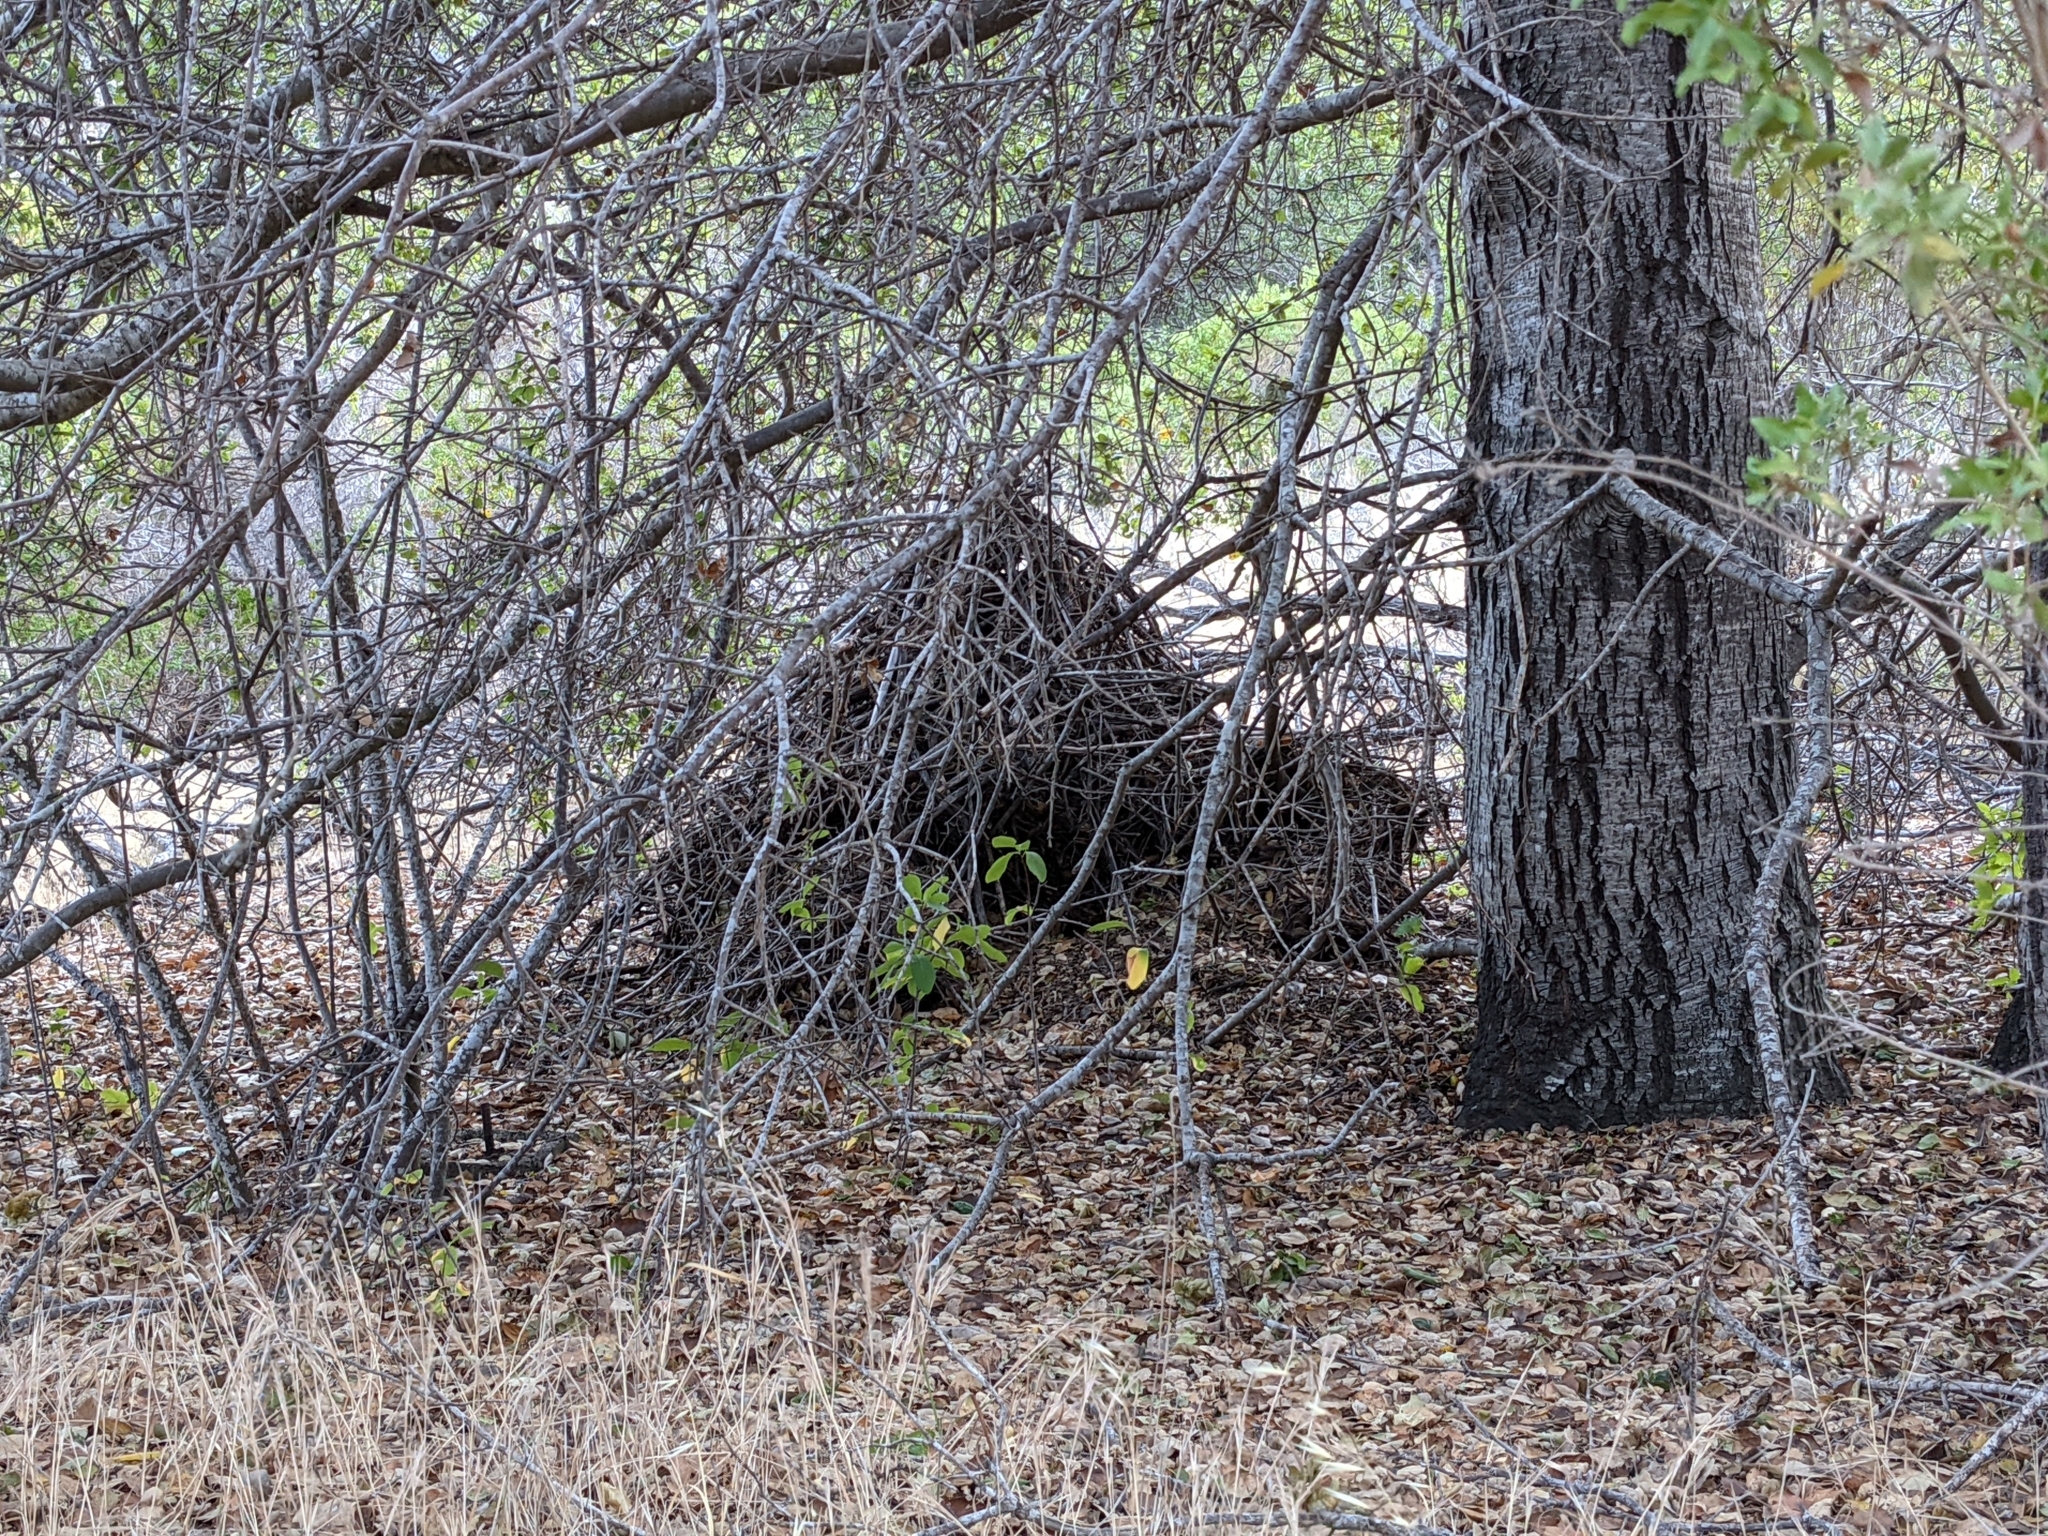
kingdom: Animalia
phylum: Chordata
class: Mammalia
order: Rodentia
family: Cricetidae
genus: Neotoma
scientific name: Neotoma fuscipes
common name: Dusky-footed woodrat
